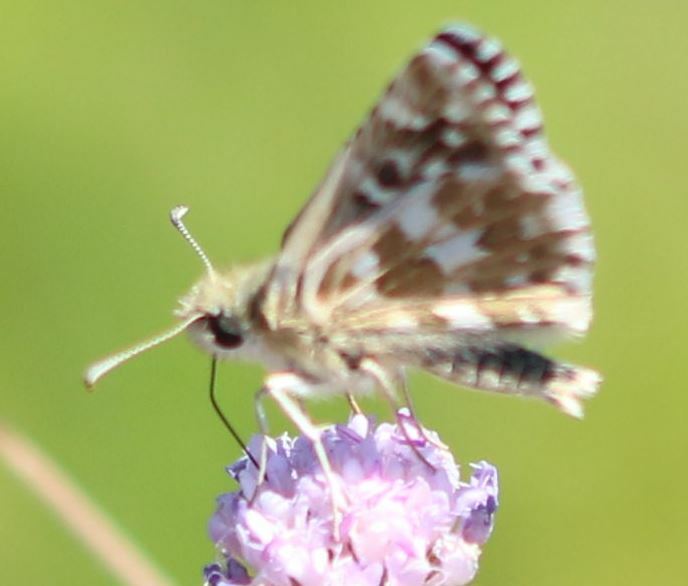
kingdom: Animalia
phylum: Arthropoda
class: Insecta
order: Lepidoptera
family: Hesperiidae
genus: Pyrgus
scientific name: Pyrgus onopordi
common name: Rosy grizzled skipper
